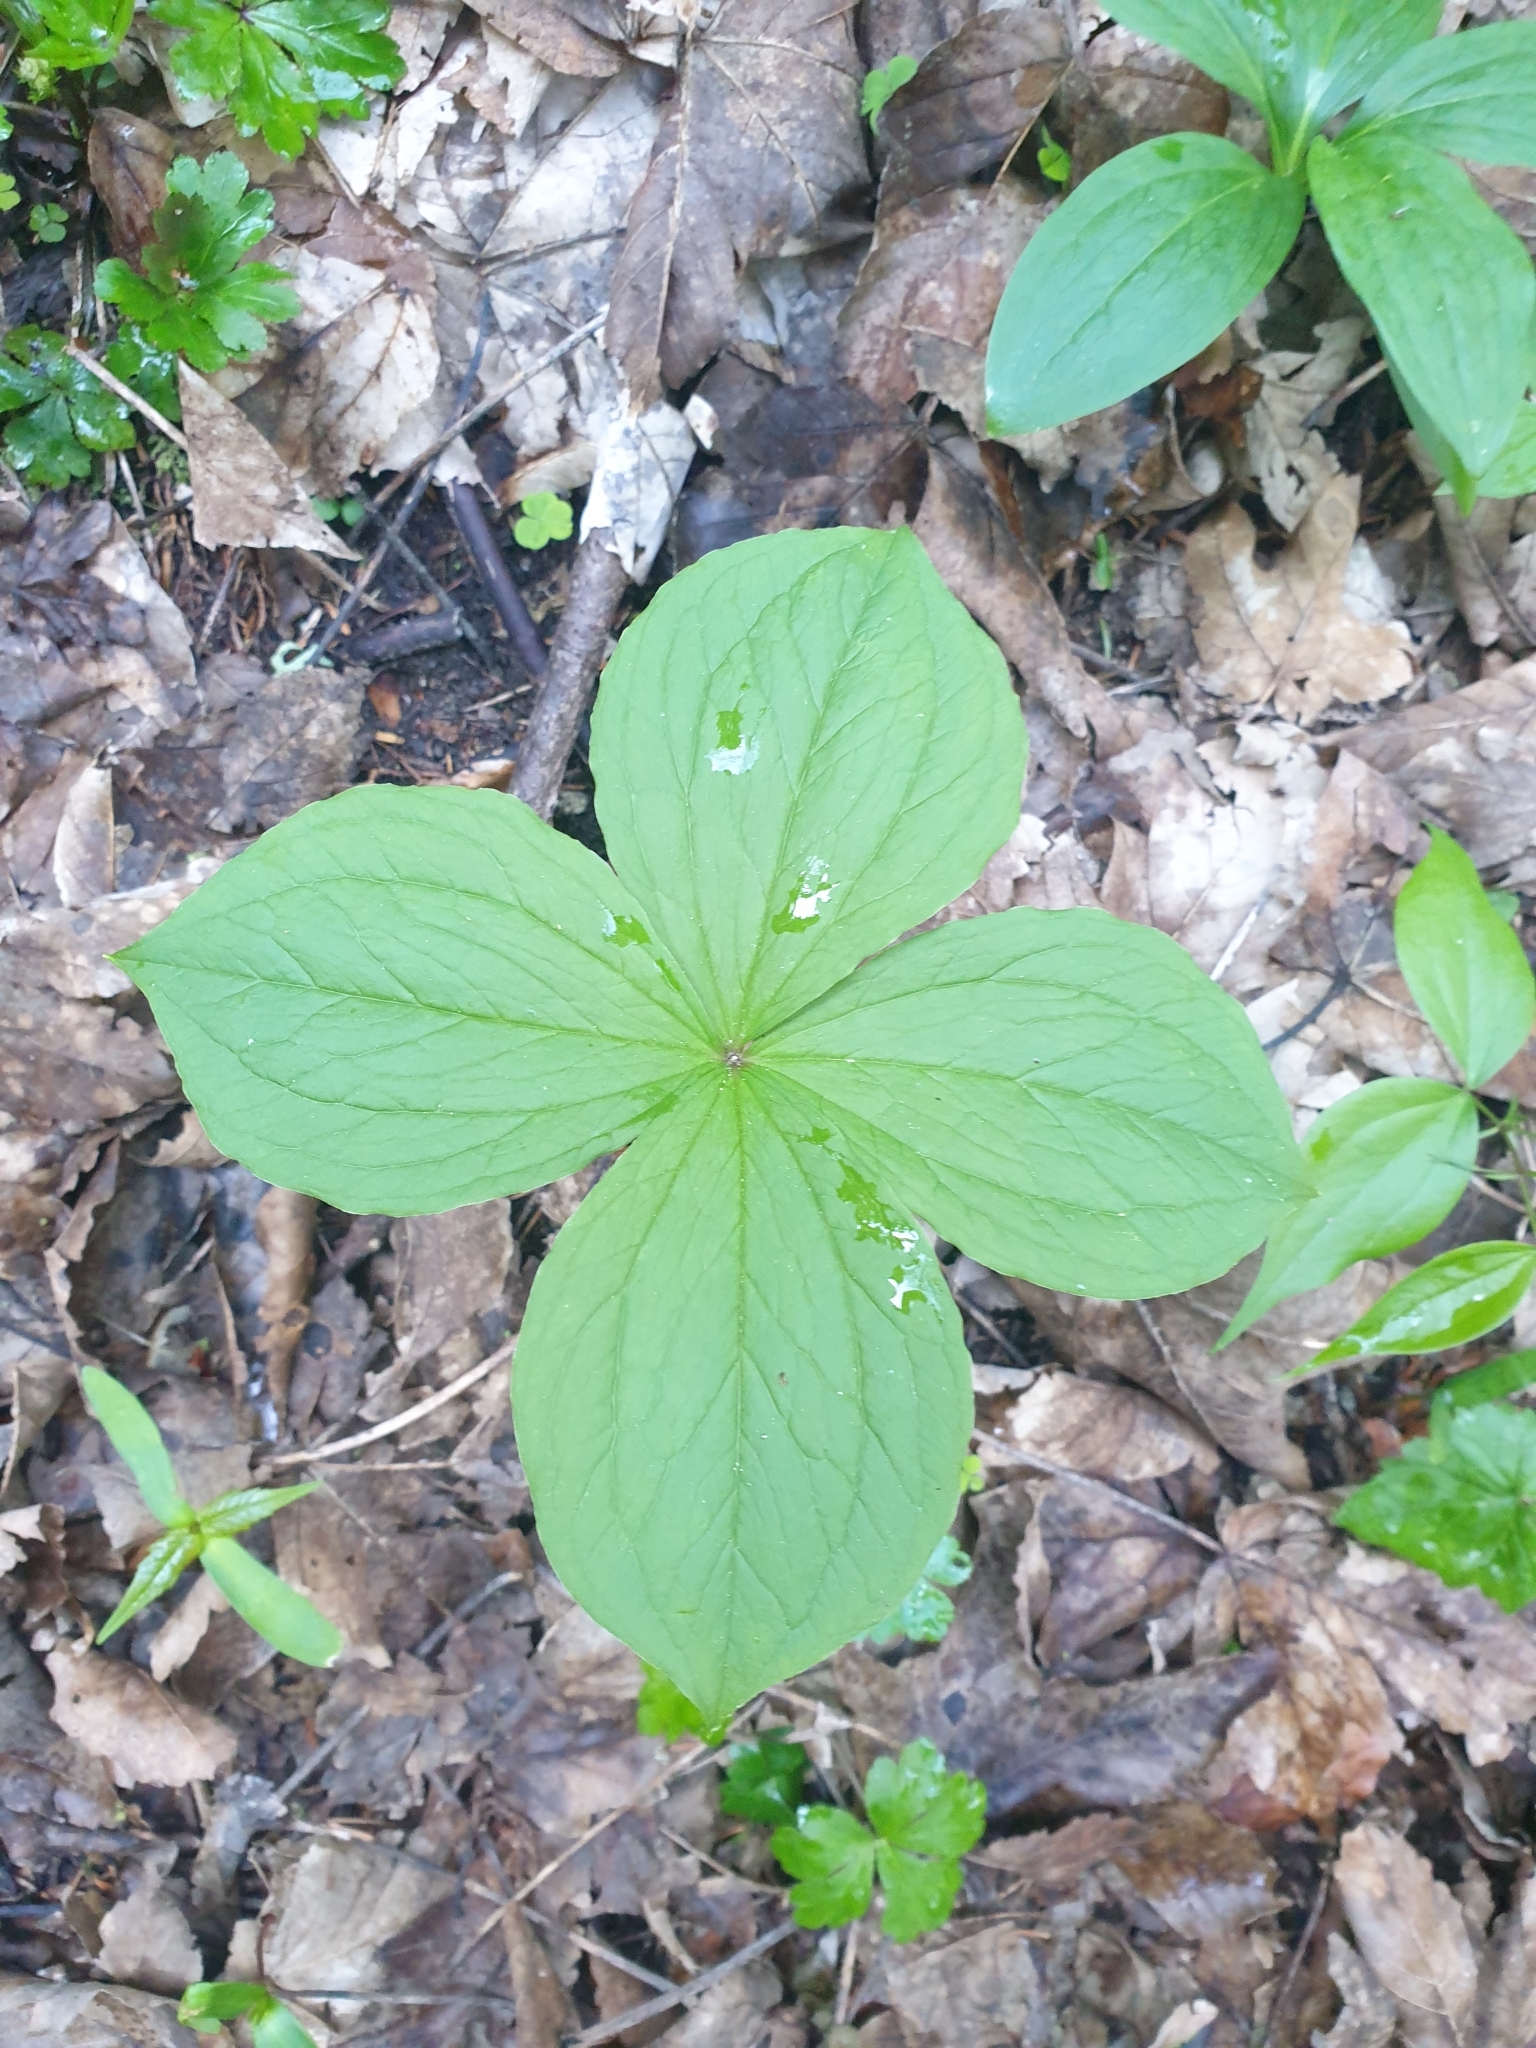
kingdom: Plantae
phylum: Tracheophyta
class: Liliopsida
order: Liliales
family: Melanthiaceae
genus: Paris
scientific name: Paris quadrifolia
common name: Herb-paris
